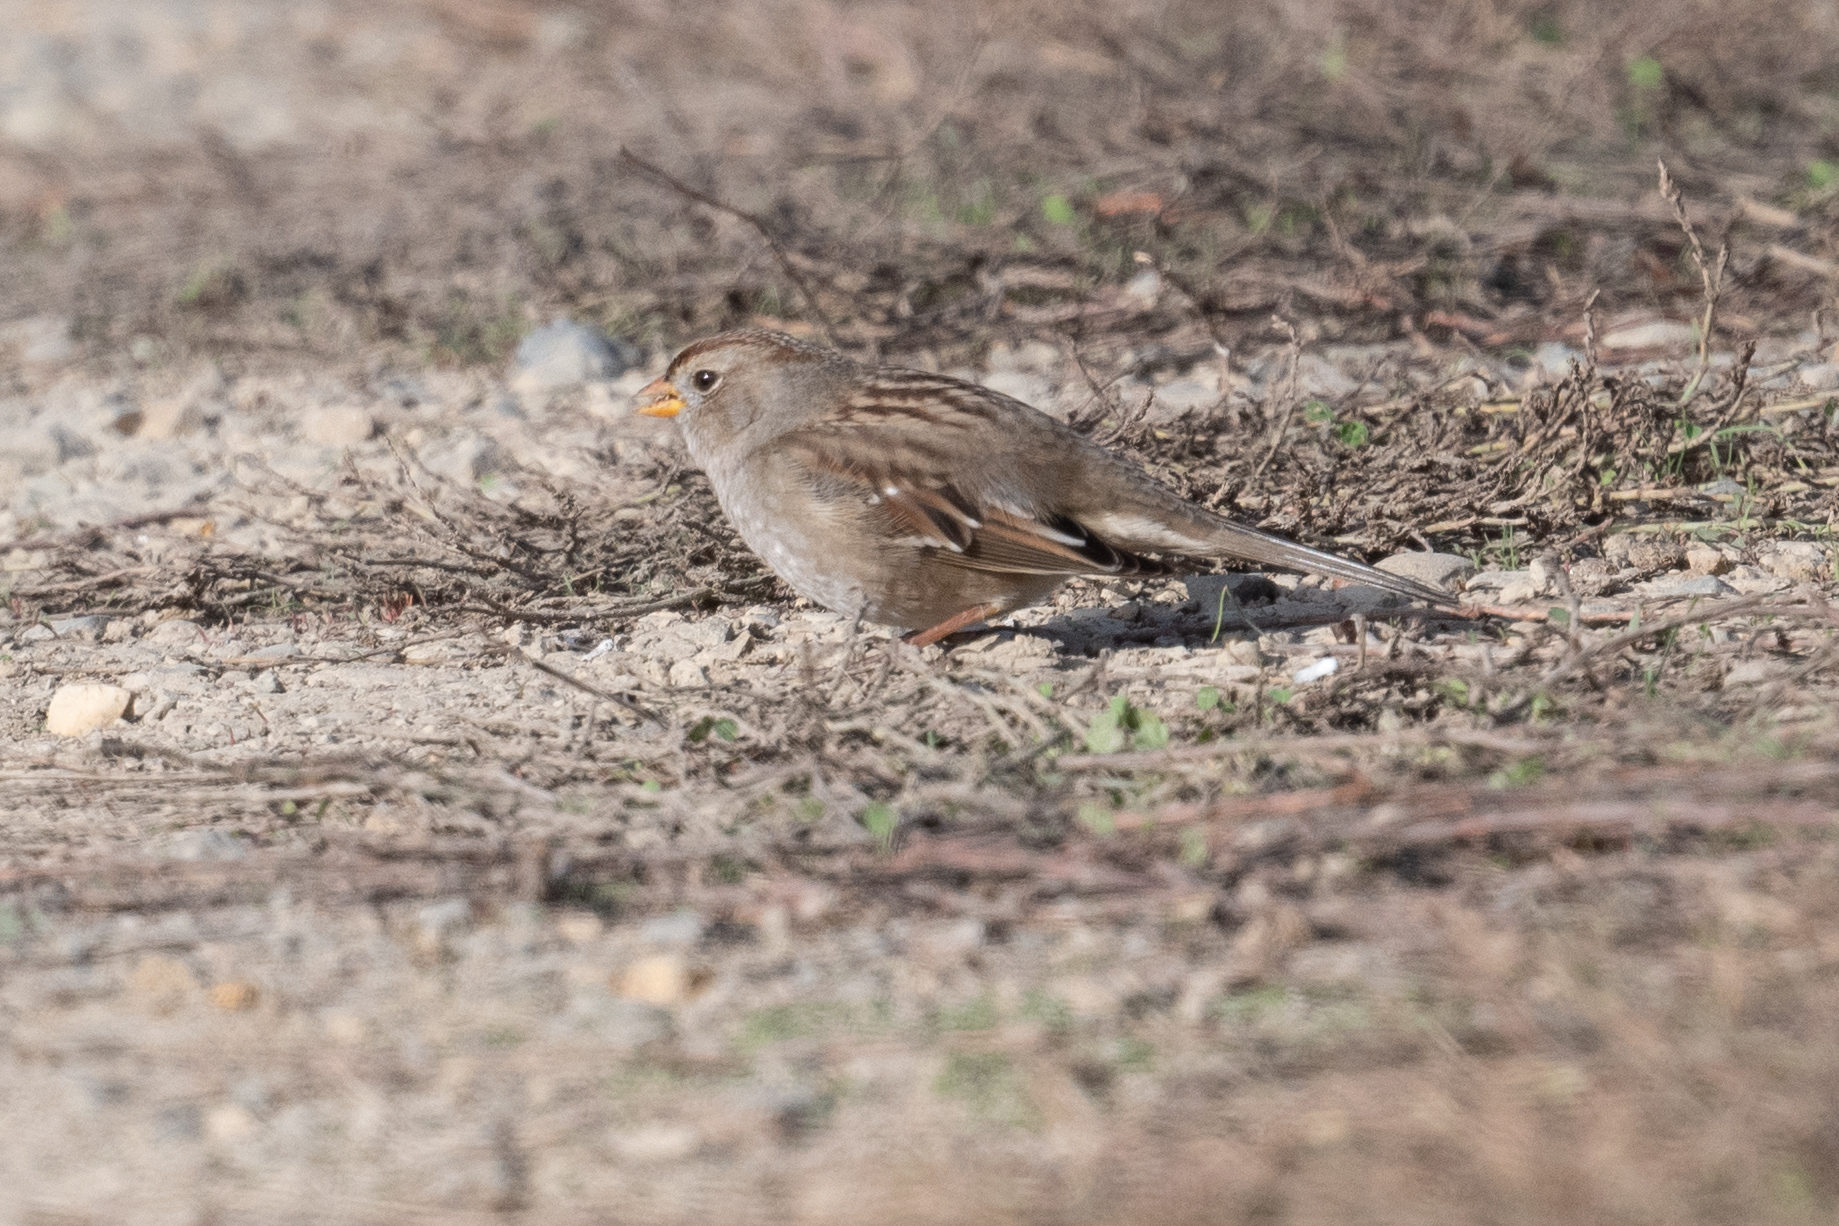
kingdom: Animalia
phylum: Chordata
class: Aves
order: Passeriformes
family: Passerellidae
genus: Zonotrichia
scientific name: Zonotrichia leucophrys
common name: White-crowned sparrow
